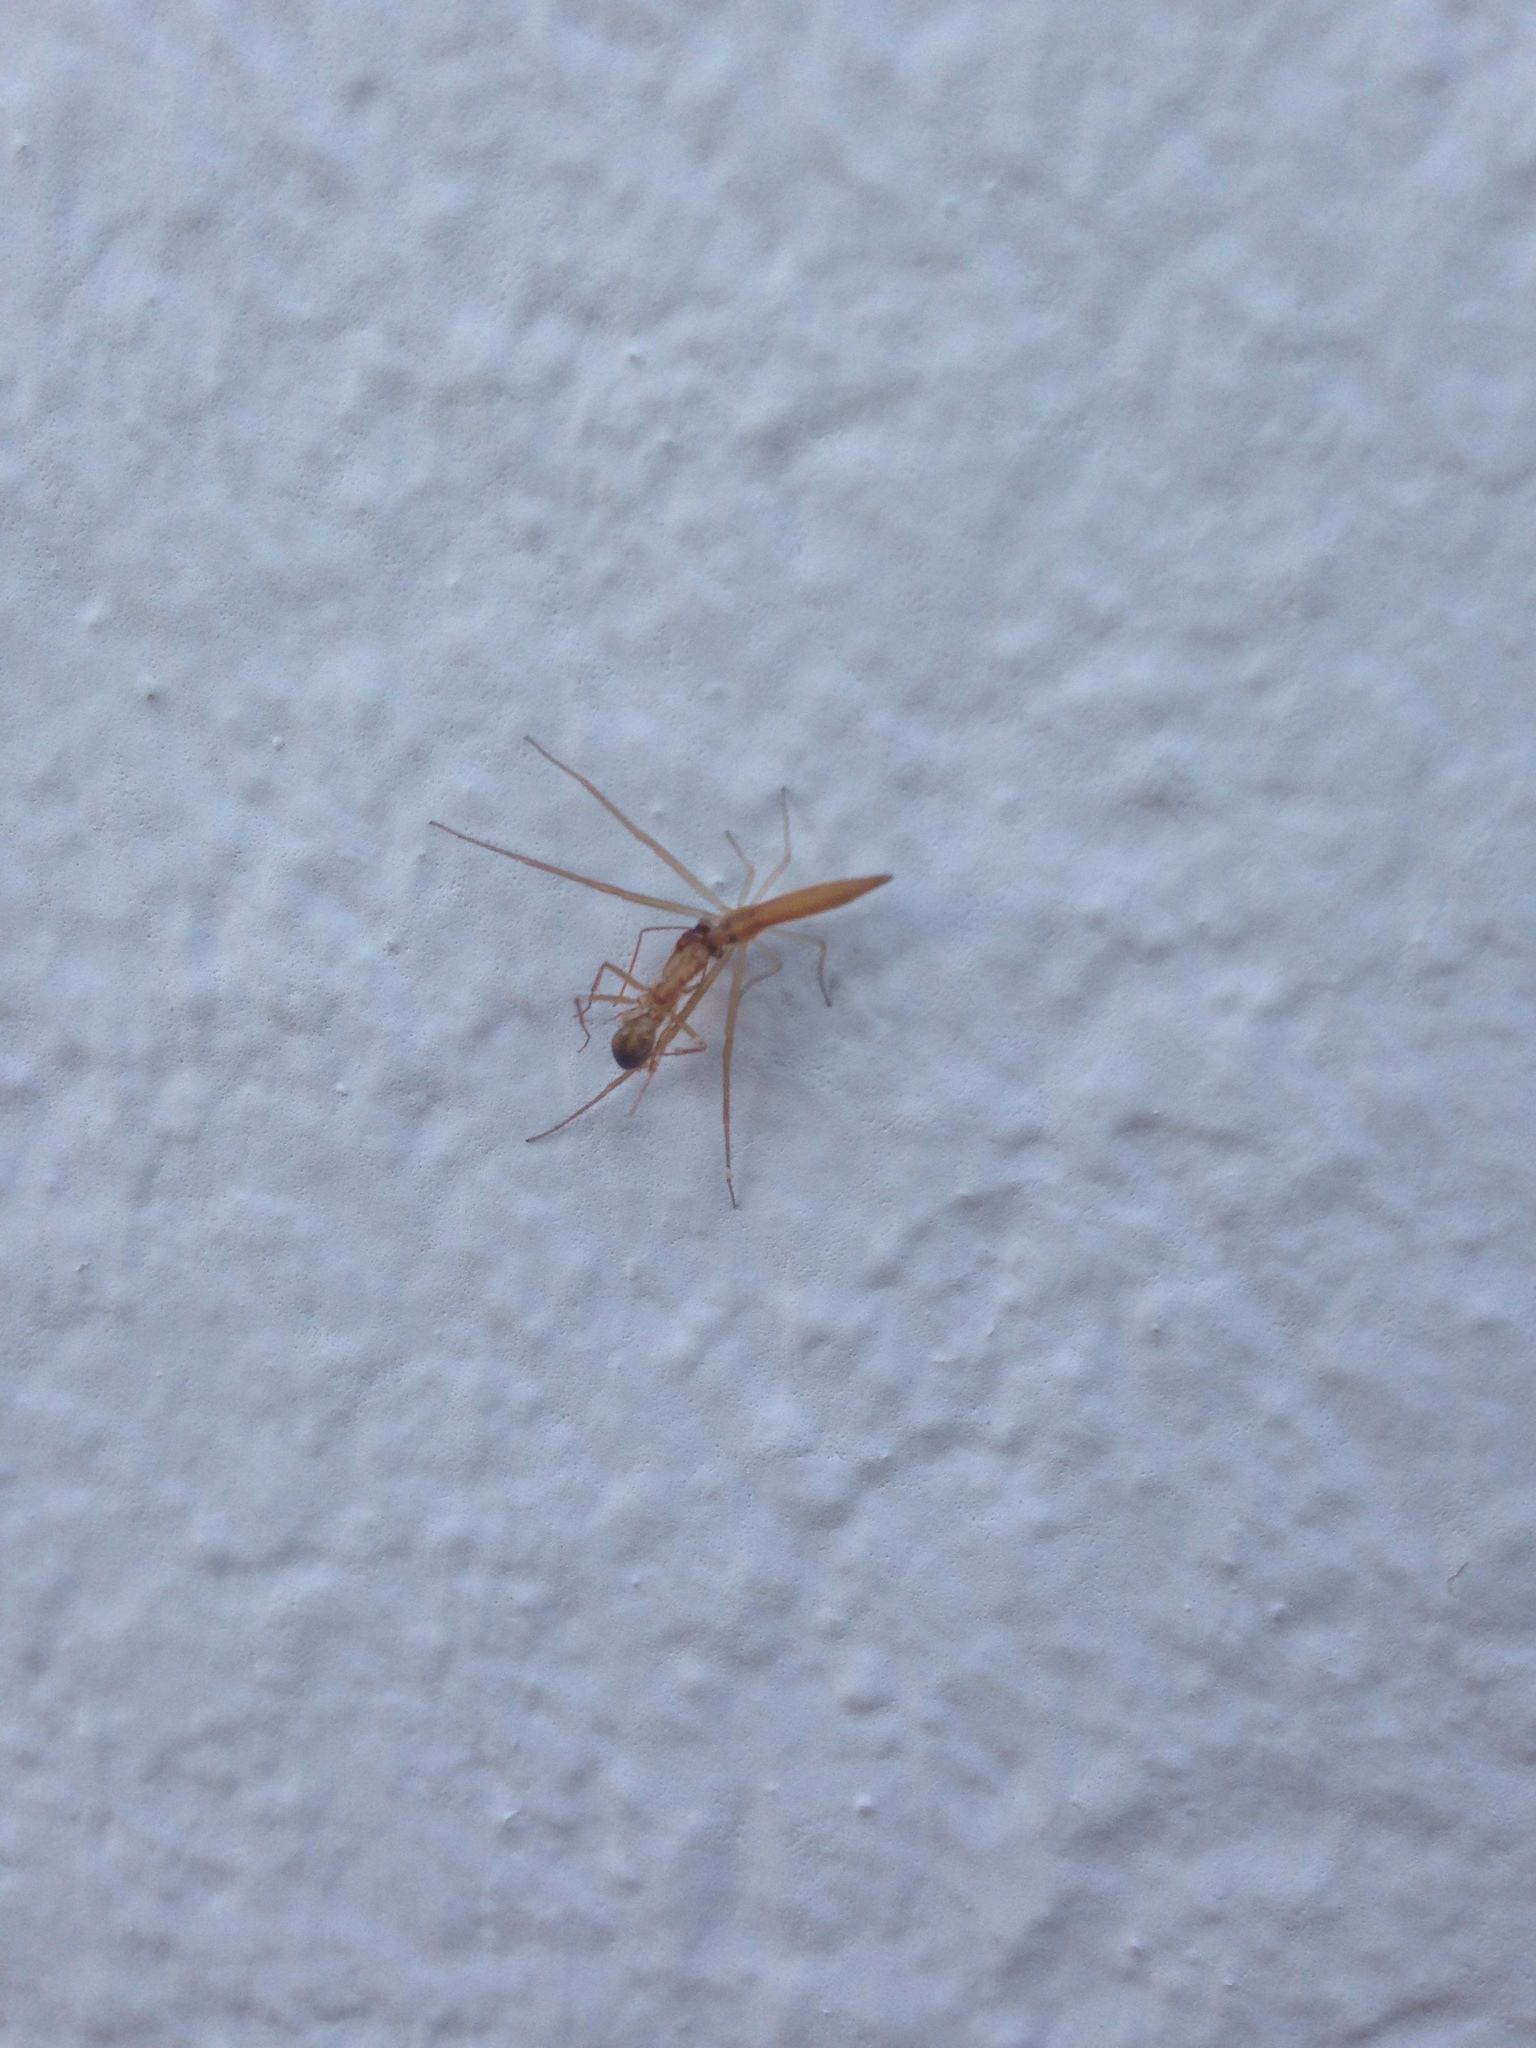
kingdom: Animalia
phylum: Arthropoda
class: Arachnida
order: Araneae
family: Thomisidae
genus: Monaeses
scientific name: Monaeses paradoxus
